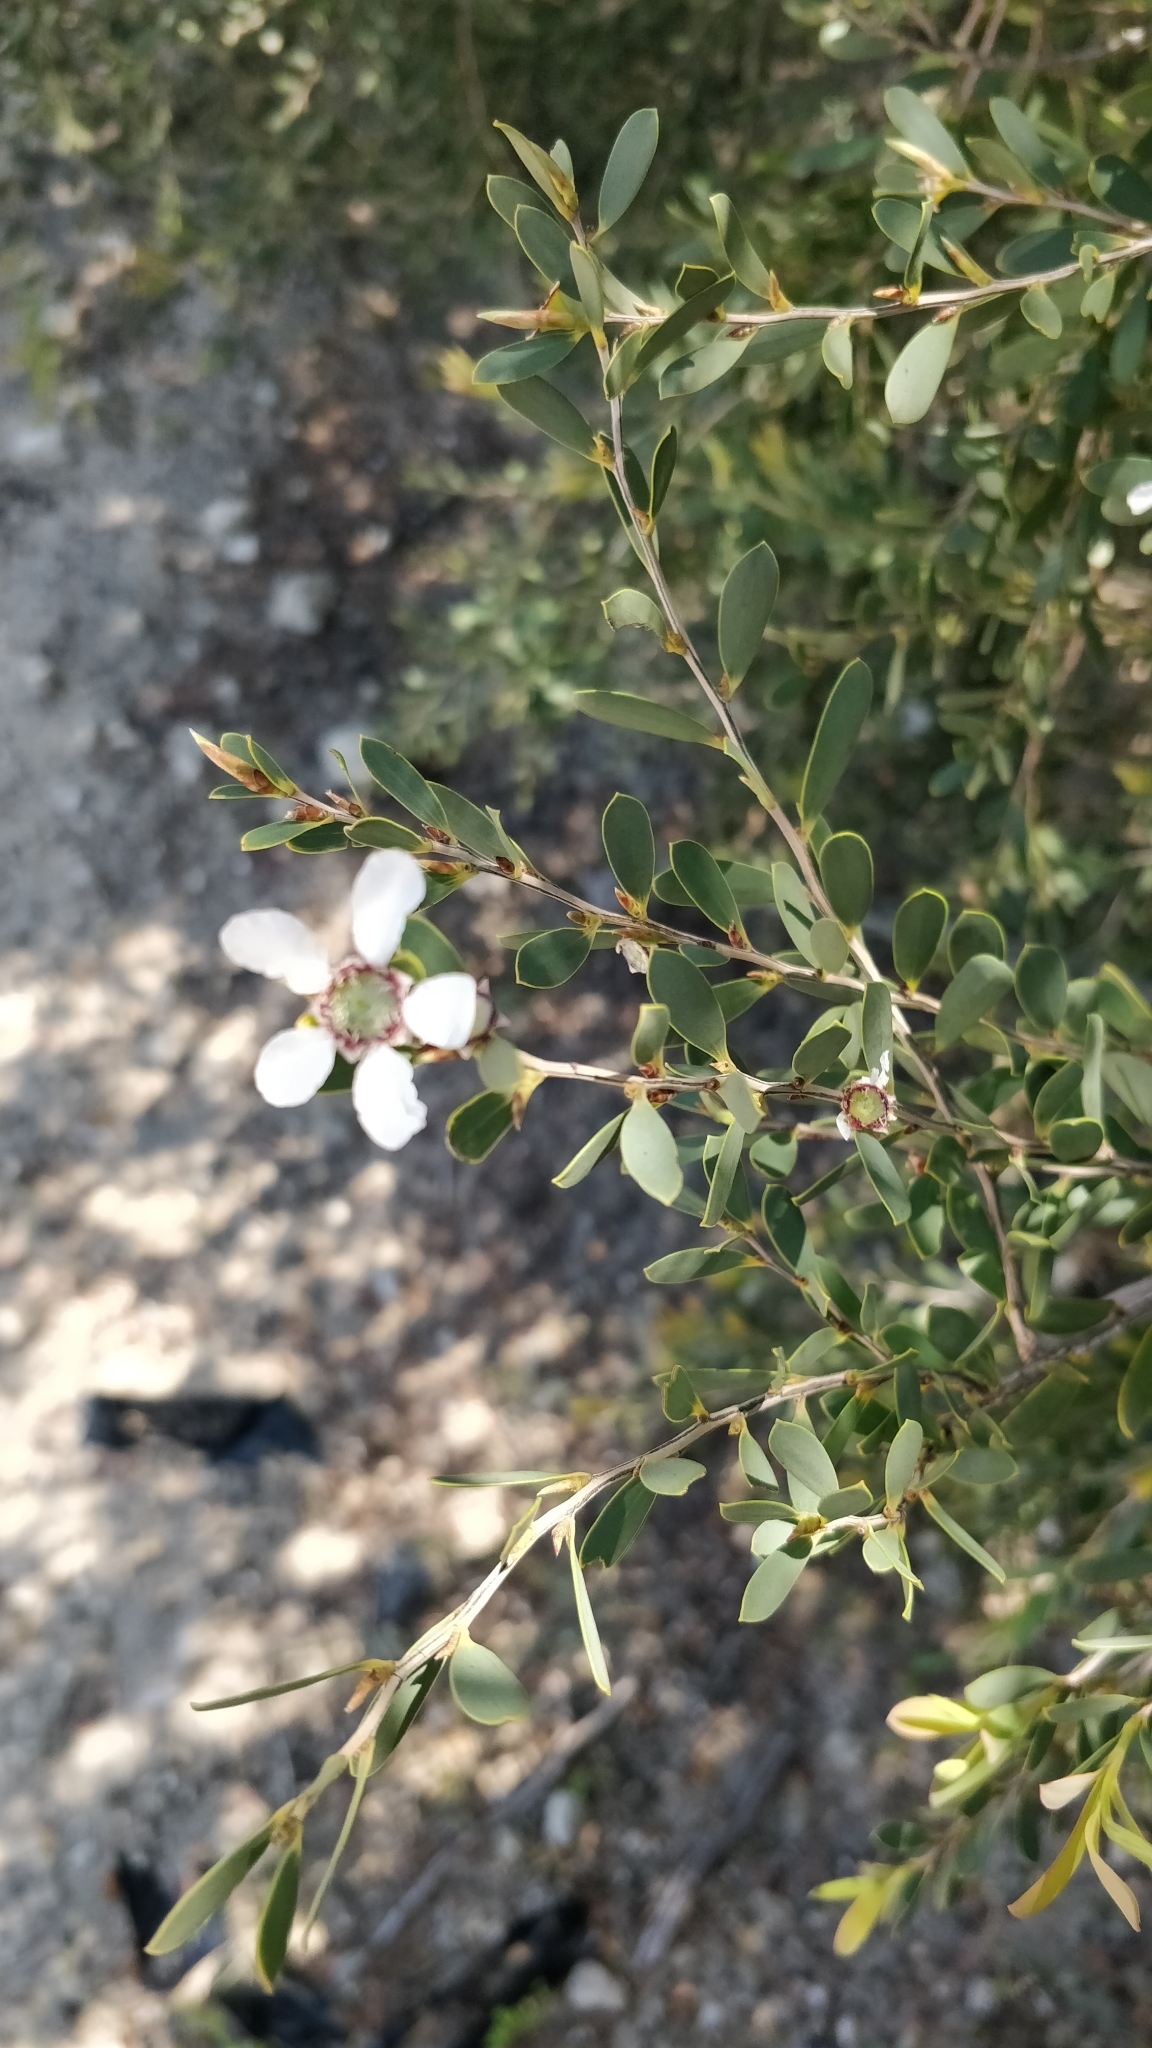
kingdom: Plantae
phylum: Tracheophyta
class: Magnoliopsida
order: Myrtales
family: Myrtaceae
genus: Leptospermum
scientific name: Leptospermum laevigatum
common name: Australian teatree
